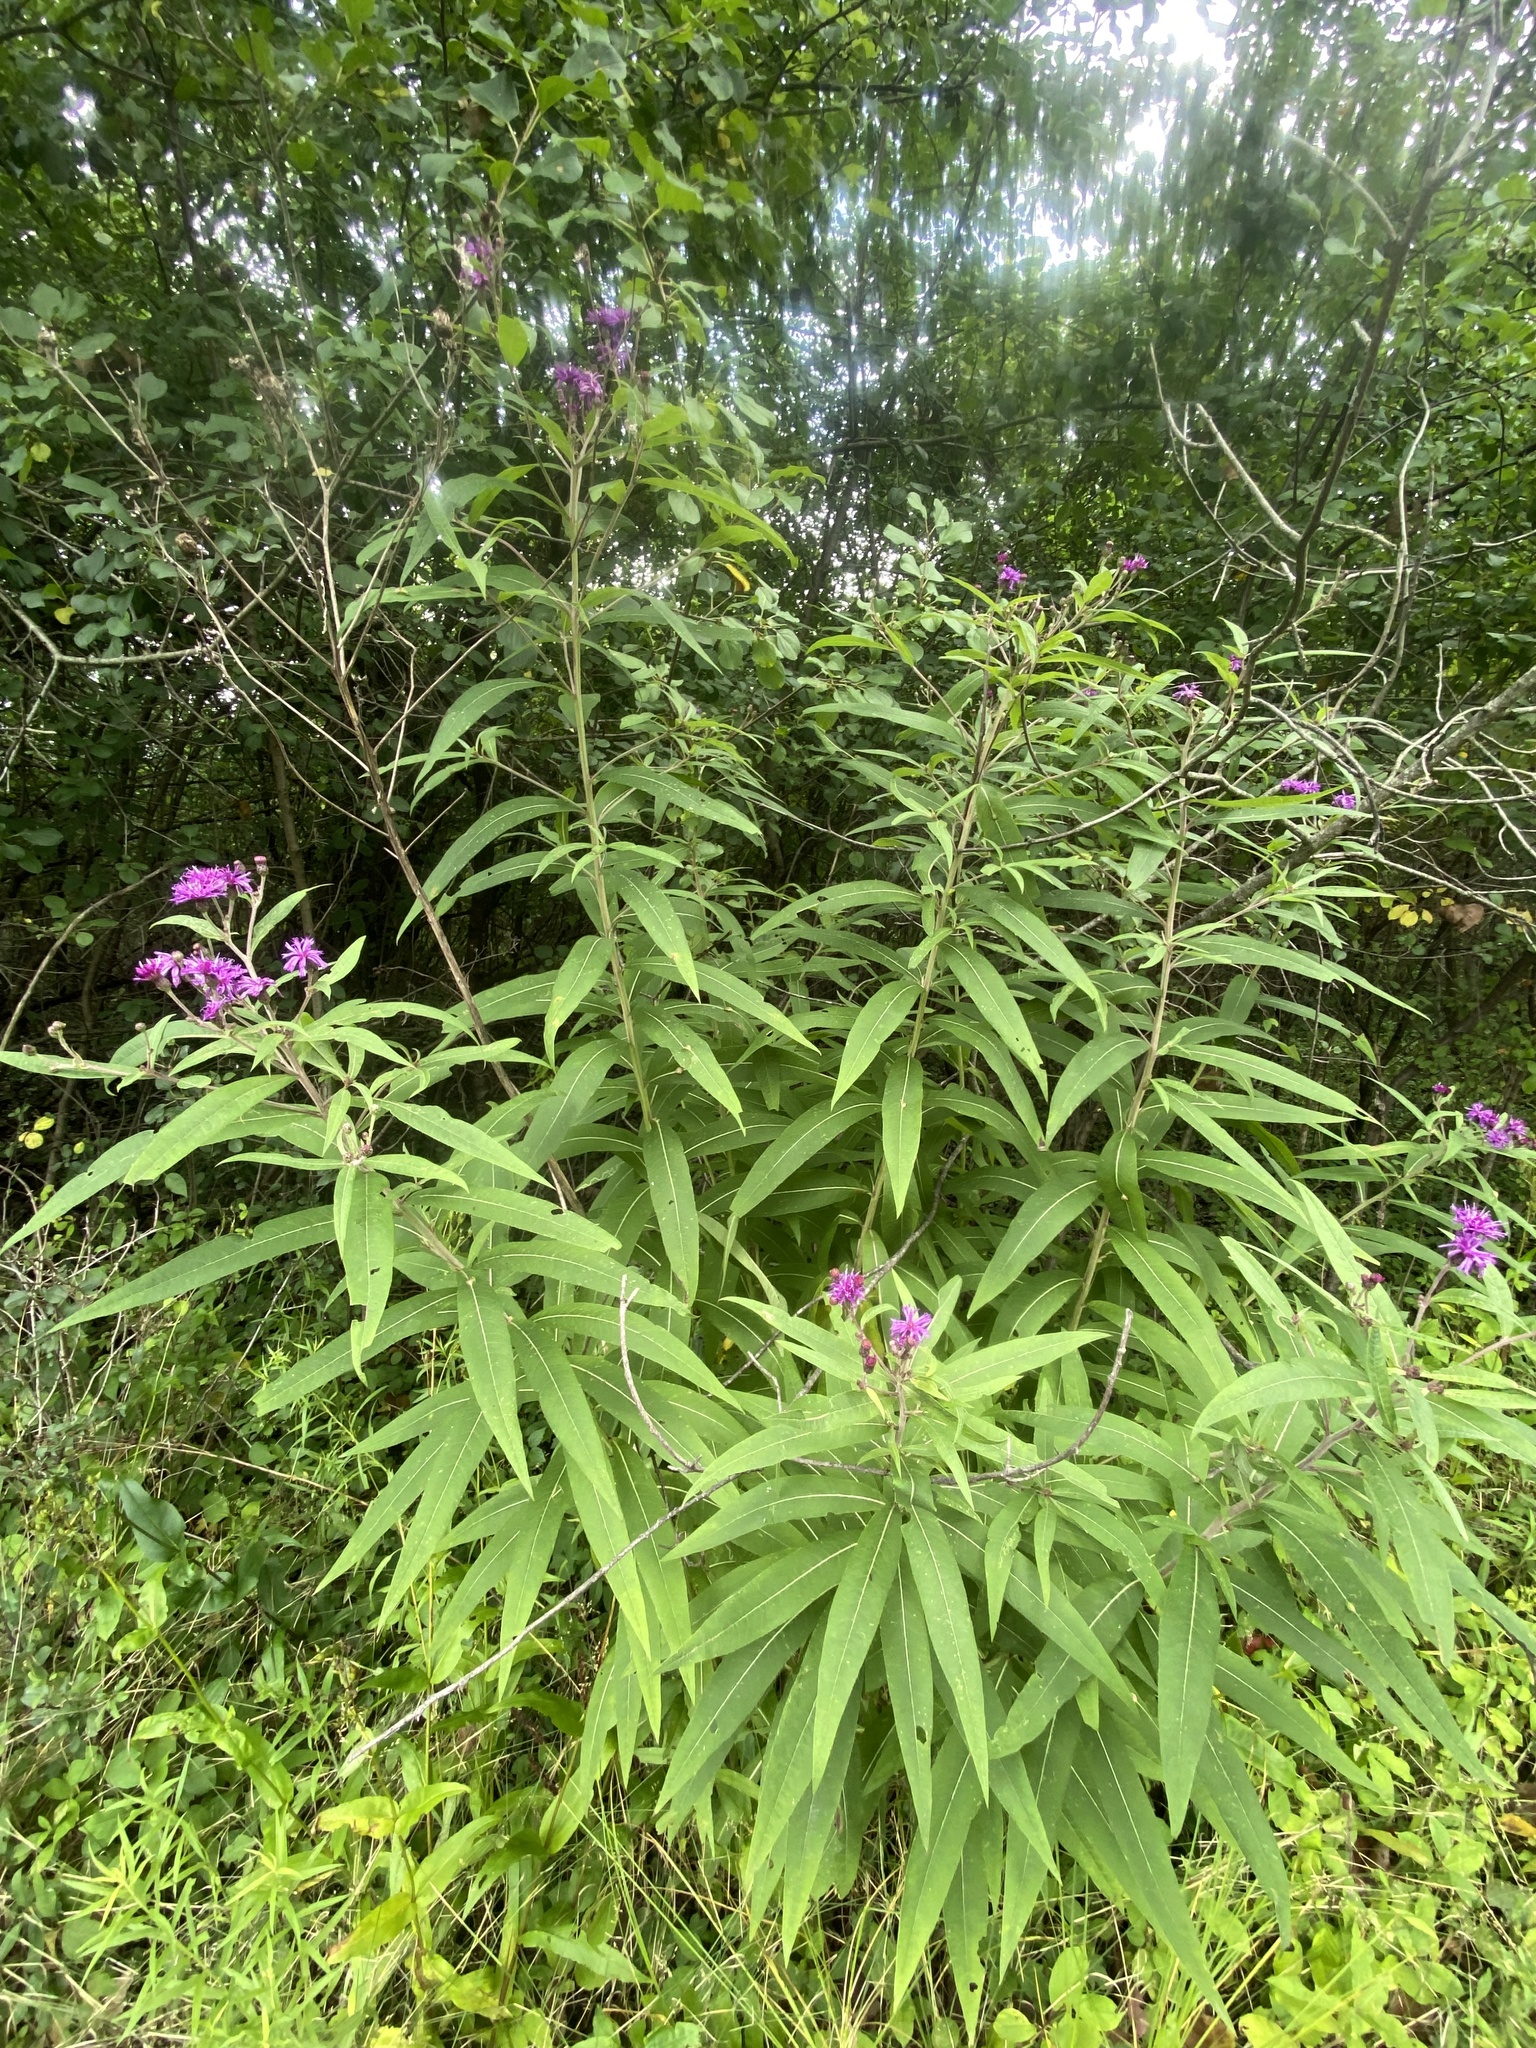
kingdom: Plantae
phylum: Tracheophyta
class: Magnoliopsida
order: Asterales
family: Asteraceae
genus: Vernonia
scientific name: Vernonia gigantea
